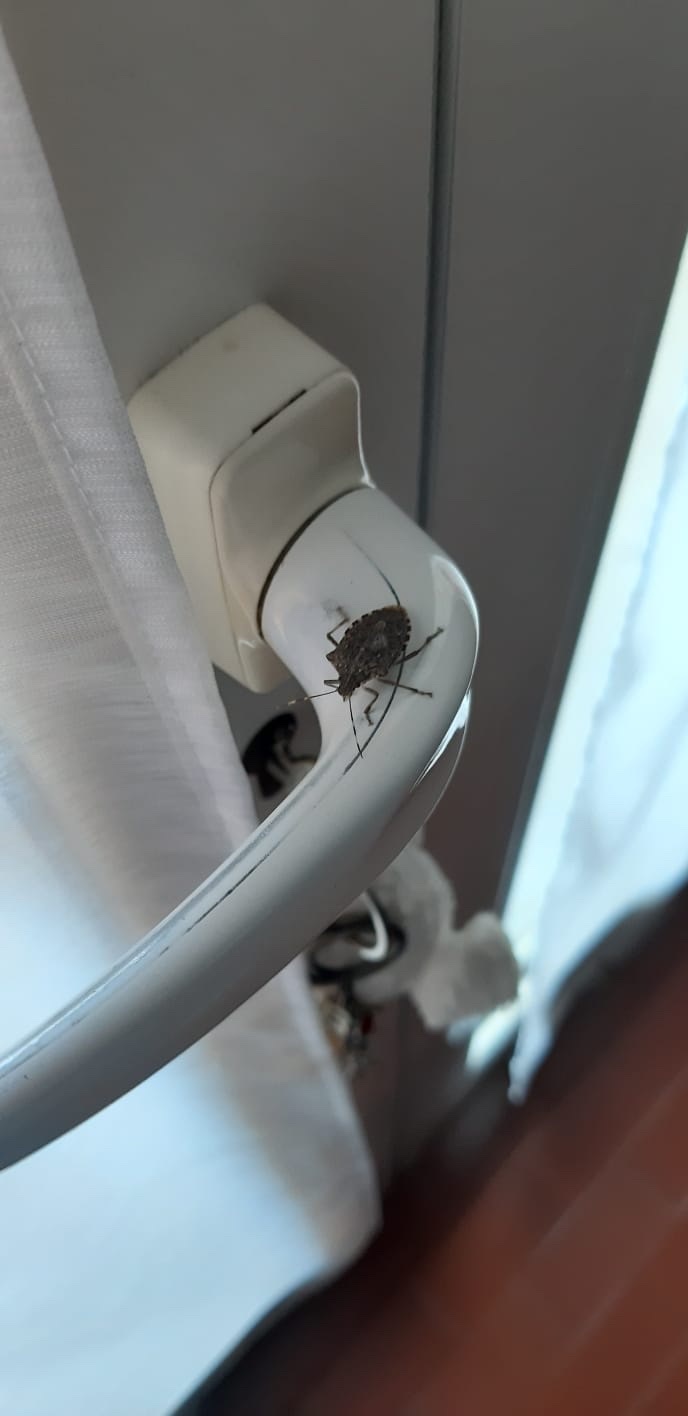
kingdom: Animalia
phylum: Arthropoda
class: Insecta
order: Hemiptera
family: Pentatomidae
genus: Halyomorpha
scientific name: Halyomorpha halys
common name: Brown marmorated stink bug
